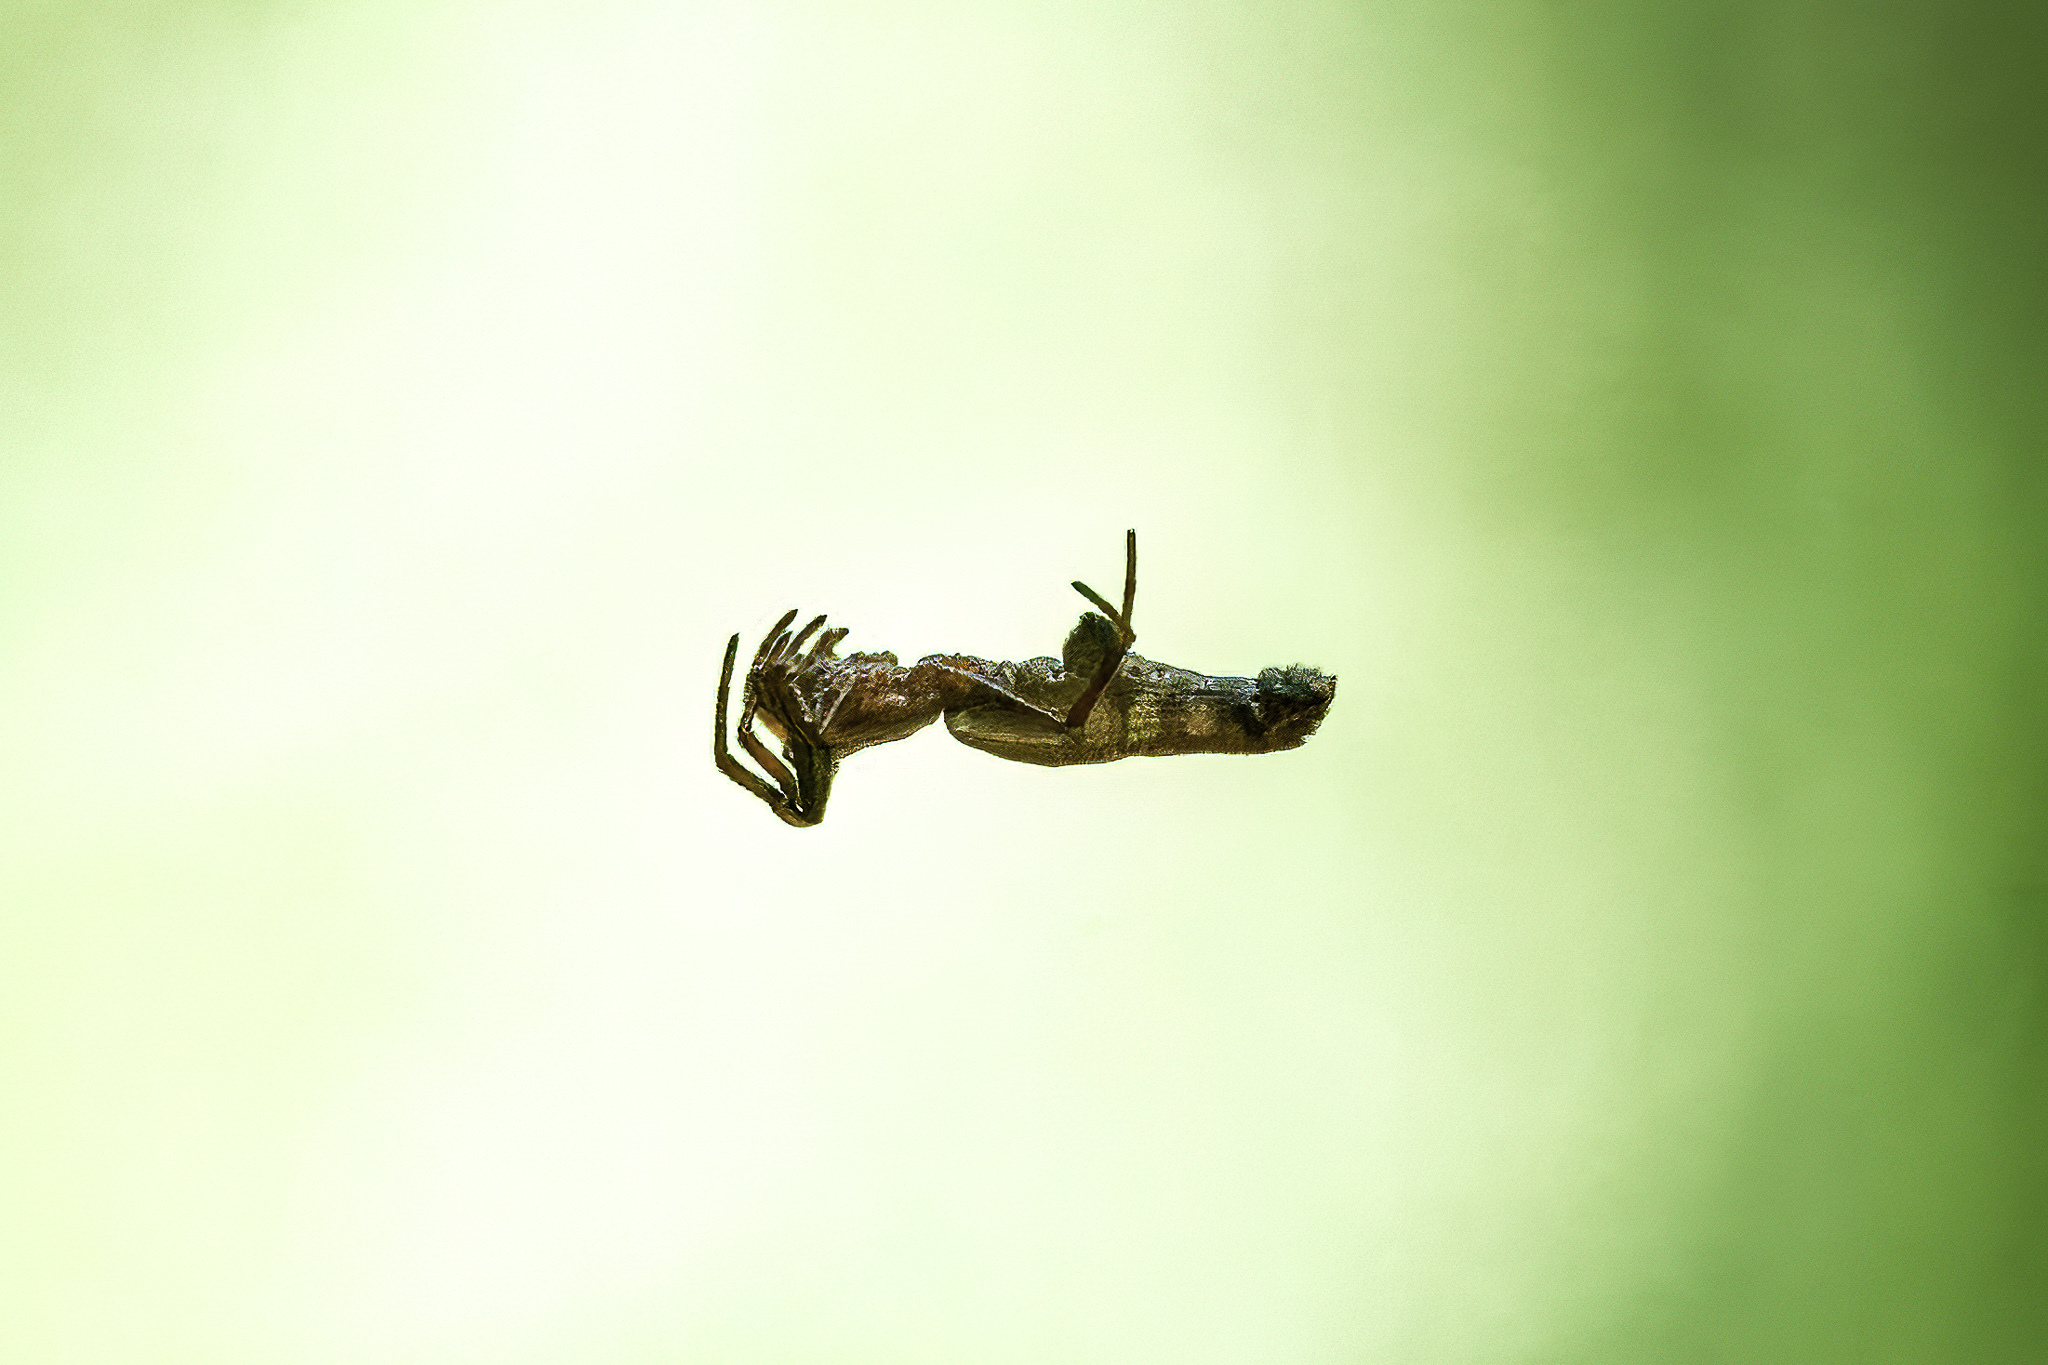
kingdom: Animalia
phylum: Arthropoda
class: Arachnida
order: Araneae
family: Araneidae
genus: Micrathena
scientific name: Micrathena gracilis
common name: Orb weavers
